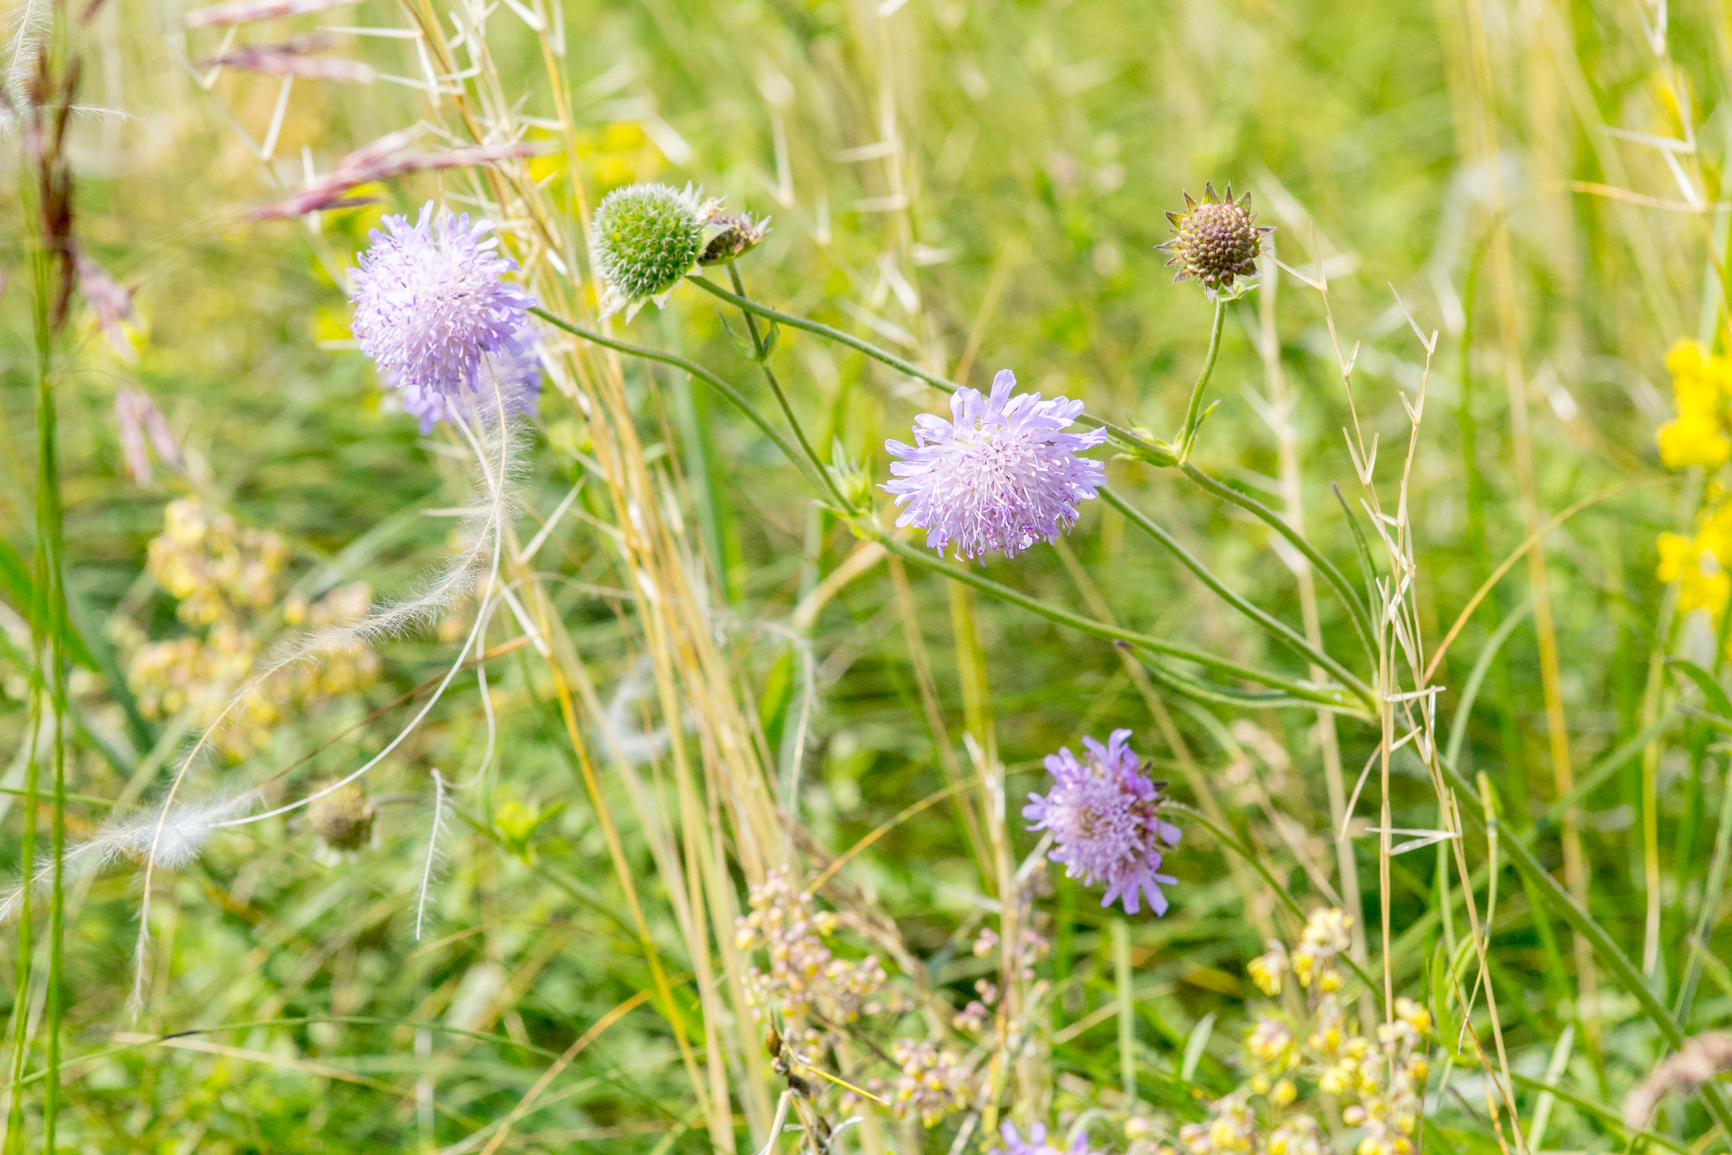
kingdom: Plantae
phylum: Tracheophyta
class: Magnoliopsida
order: Dipsacales
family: Caprifoliaceae
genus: Knautia
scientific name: Knautia arvensis
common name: Field scabiosa
